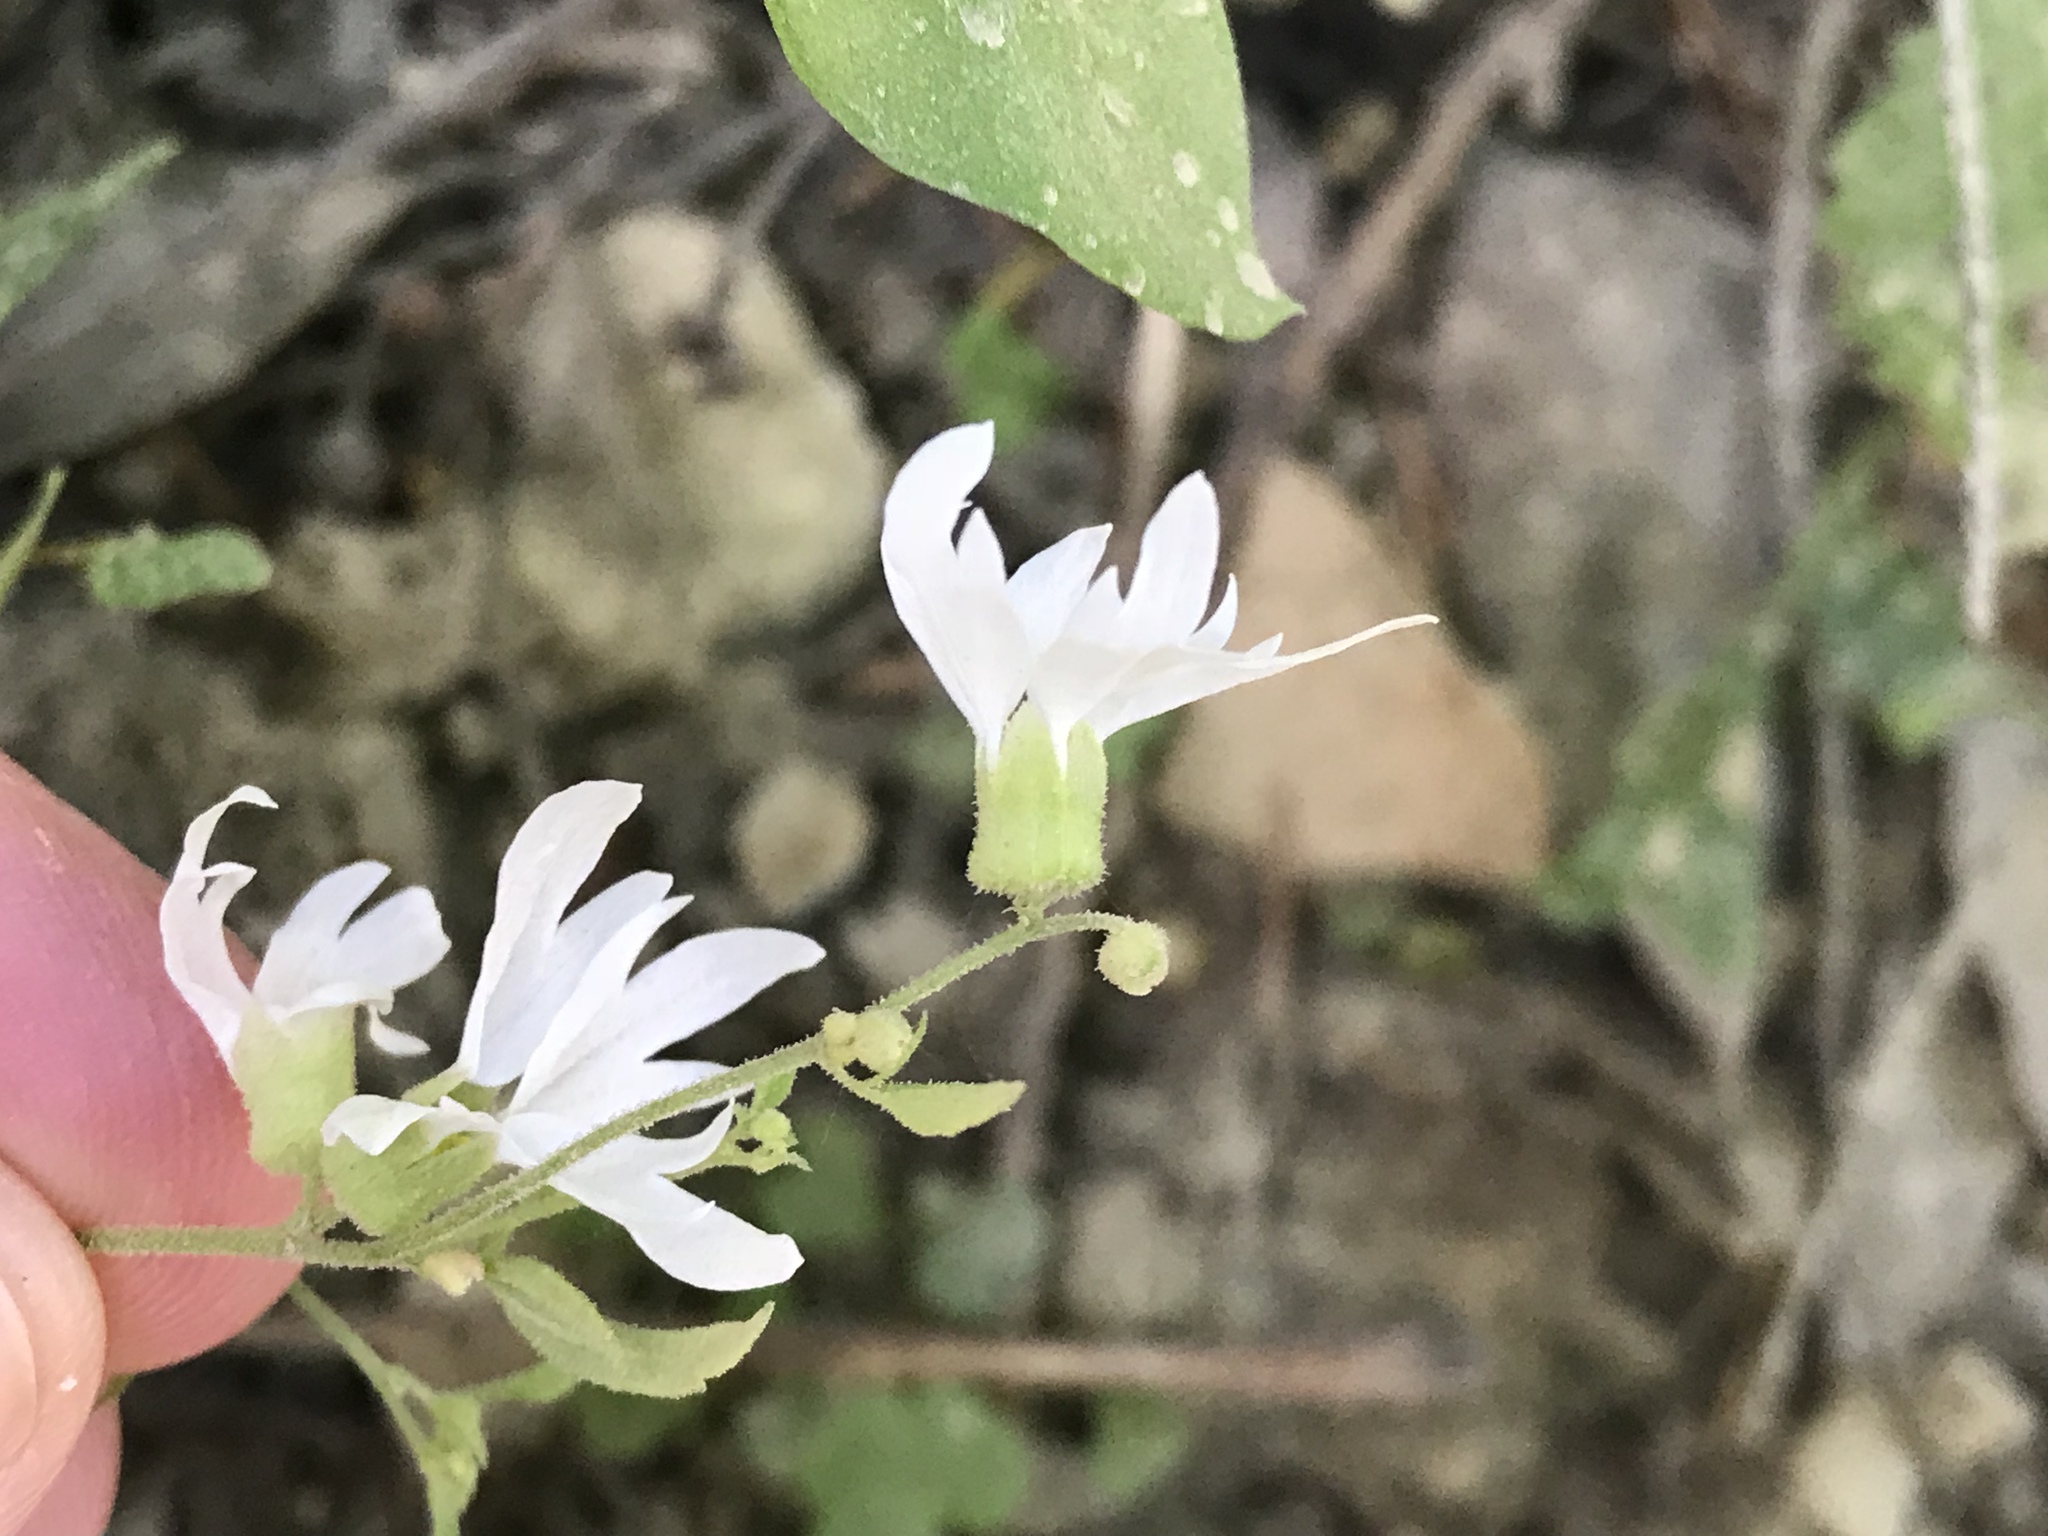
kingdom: Plantae
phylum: Tracheophyta
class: Magnoliopsida
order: Saxifragales
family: Saxifragaceae
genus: Lithophragma
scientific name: Lithophragma heterophyllum
